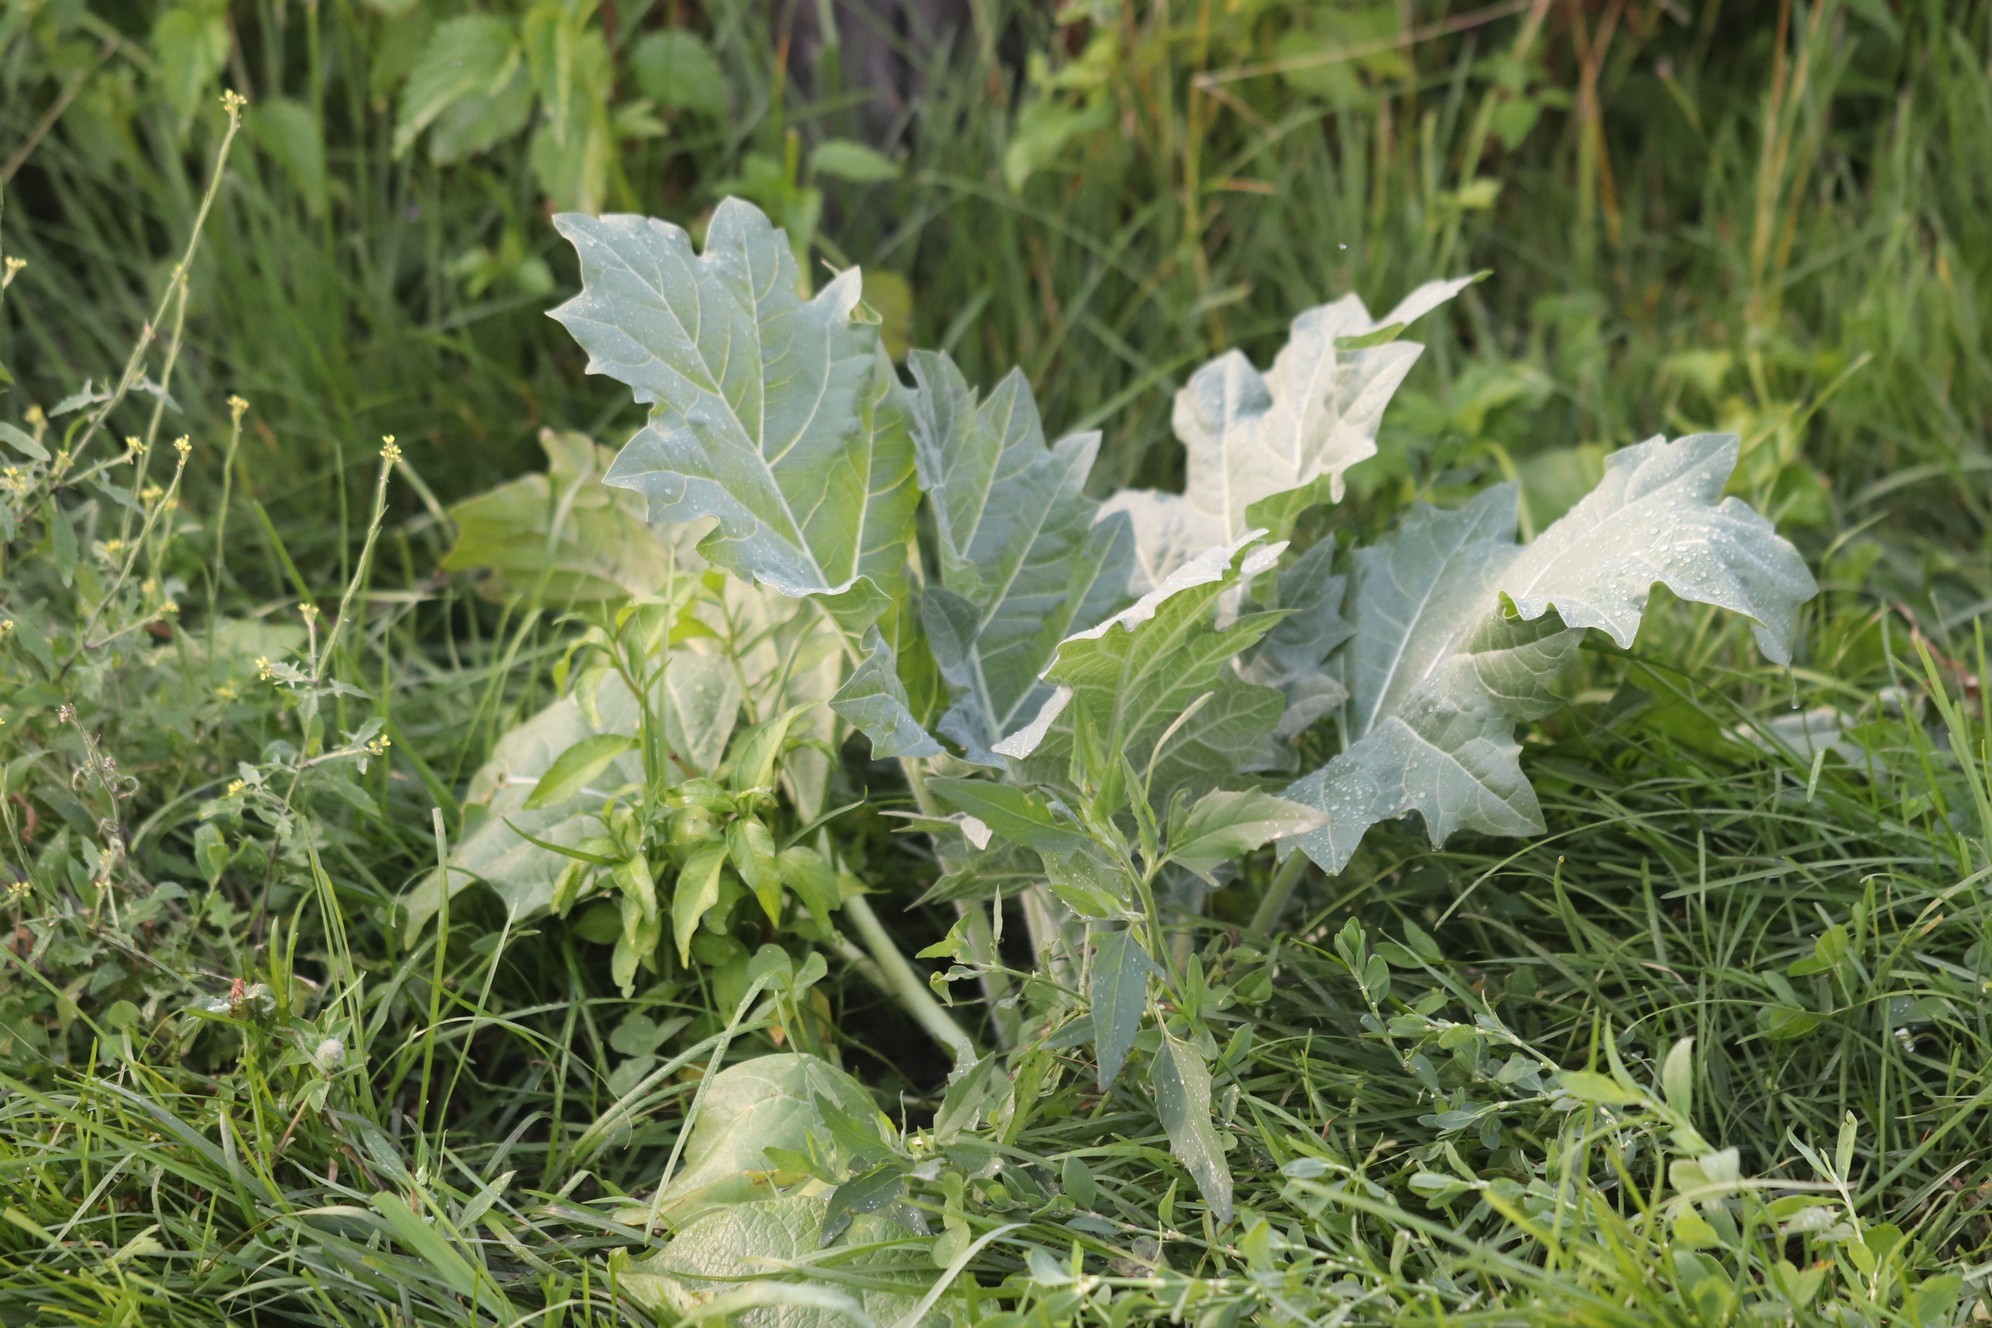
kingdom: Plantae
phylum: Tracheophyta
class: Magnoliopsida
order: Solanales
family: Solanaceae
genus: Hyoscyamus
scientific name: Hyoscyamus niger
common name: Henbane
